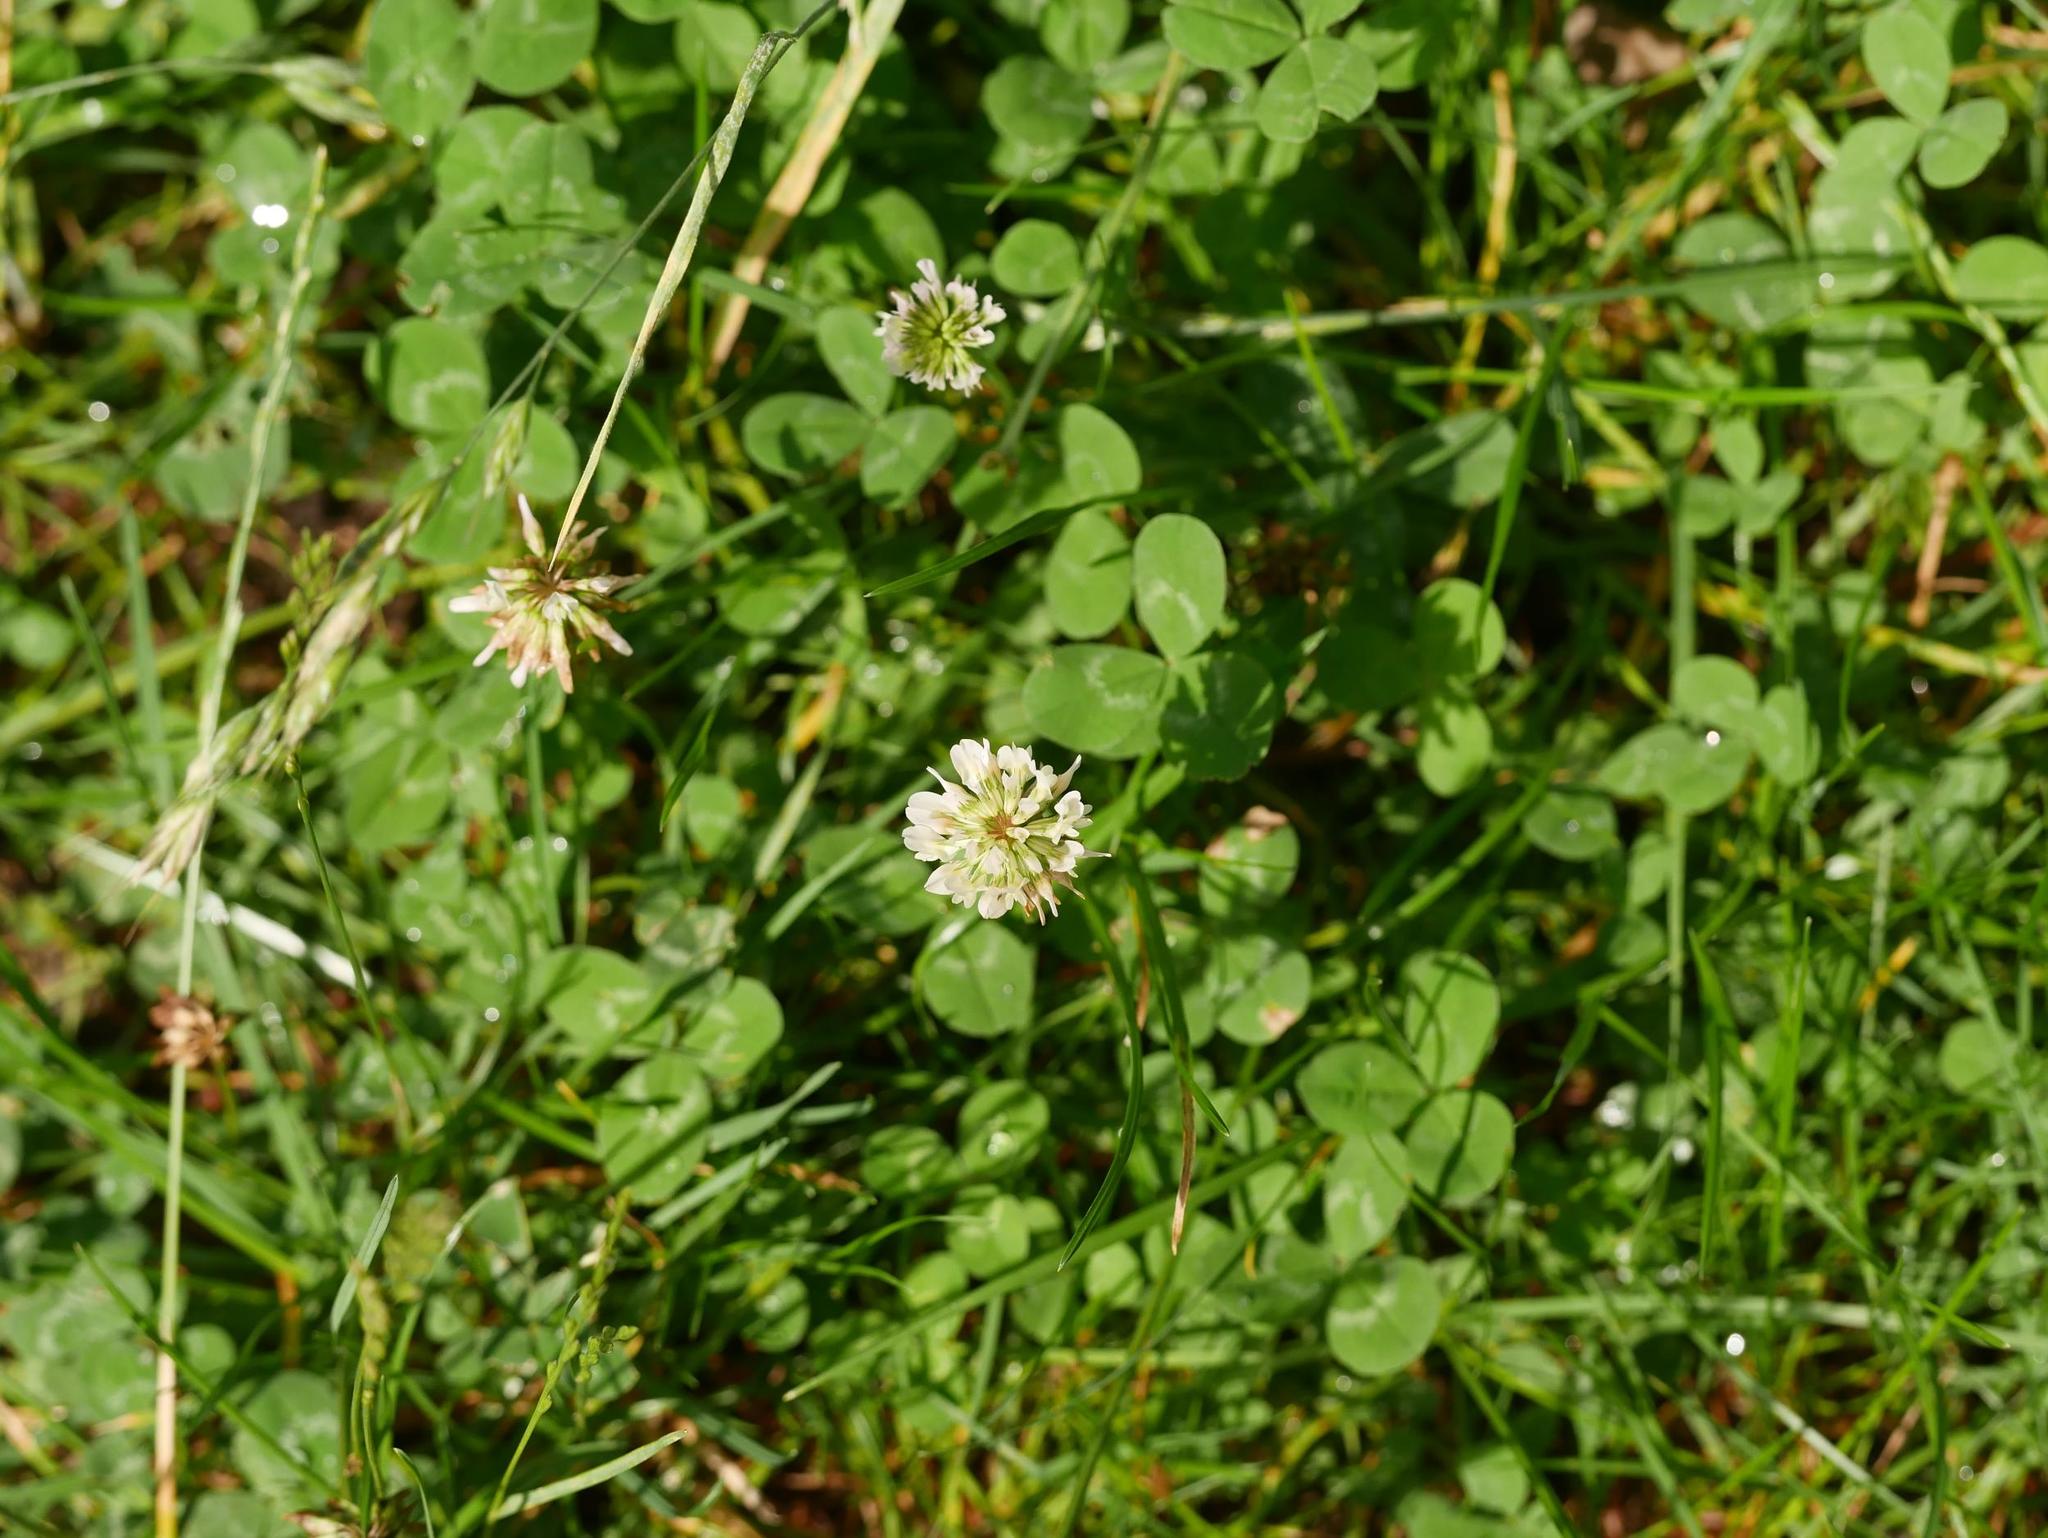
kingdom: Plantae
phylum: Tracheophyta
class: Magnoliopsida
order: Fabales
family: Fabaceae
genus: Trifolium
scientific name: Trifolium repens
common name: White clover
